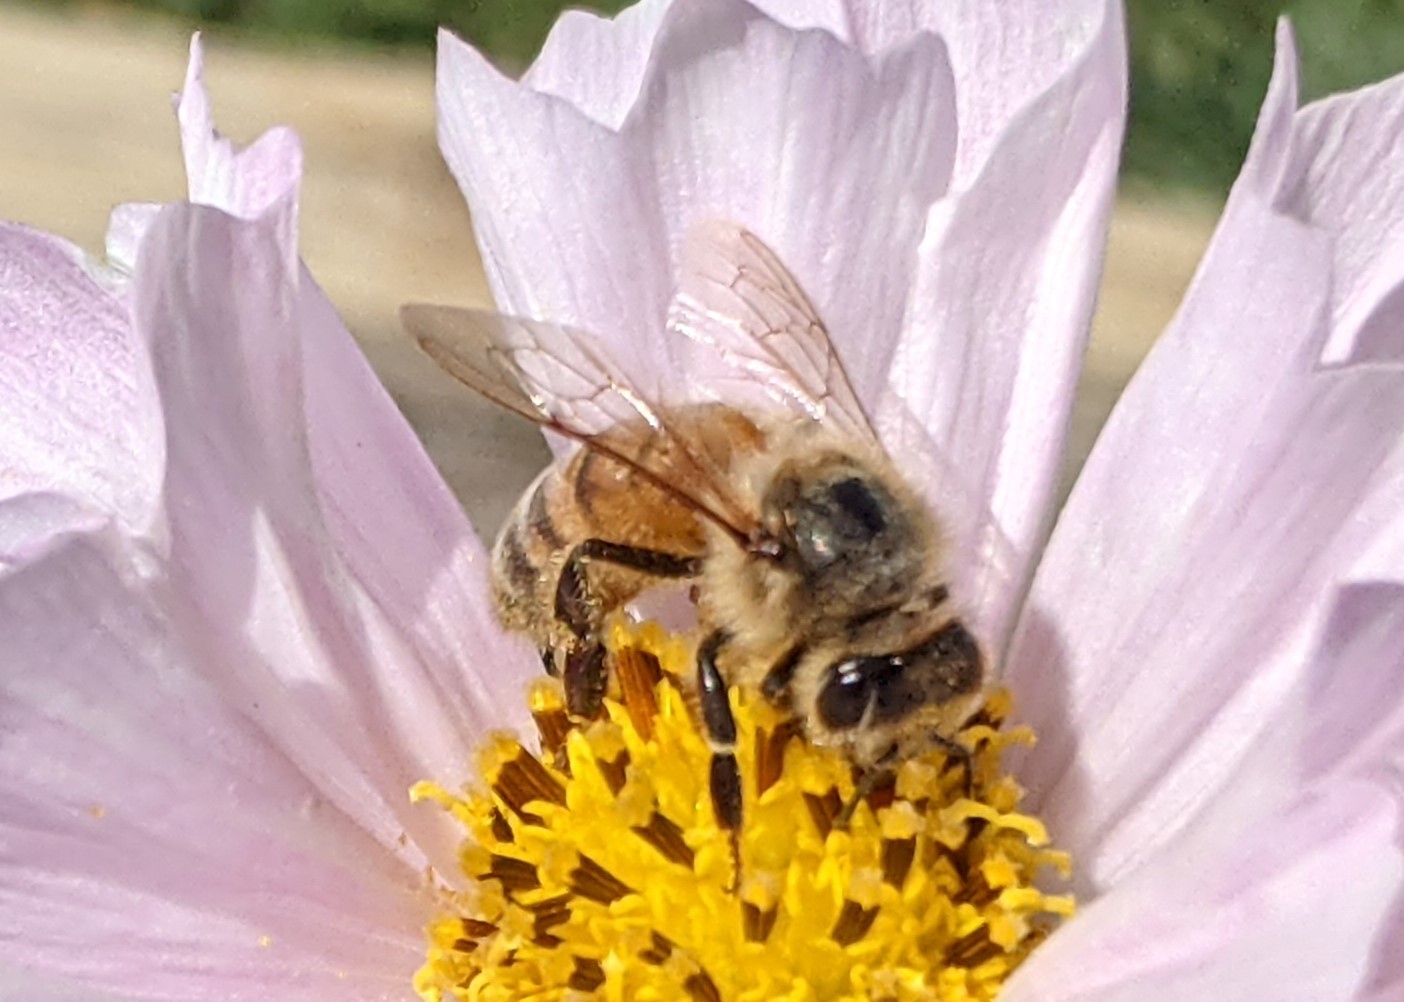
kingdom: Animalia
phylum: Arthropoda
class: Insecta
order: Hymenoptera
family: Apidae
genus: Apis
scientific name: Apis mellifera
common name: Honey bee
